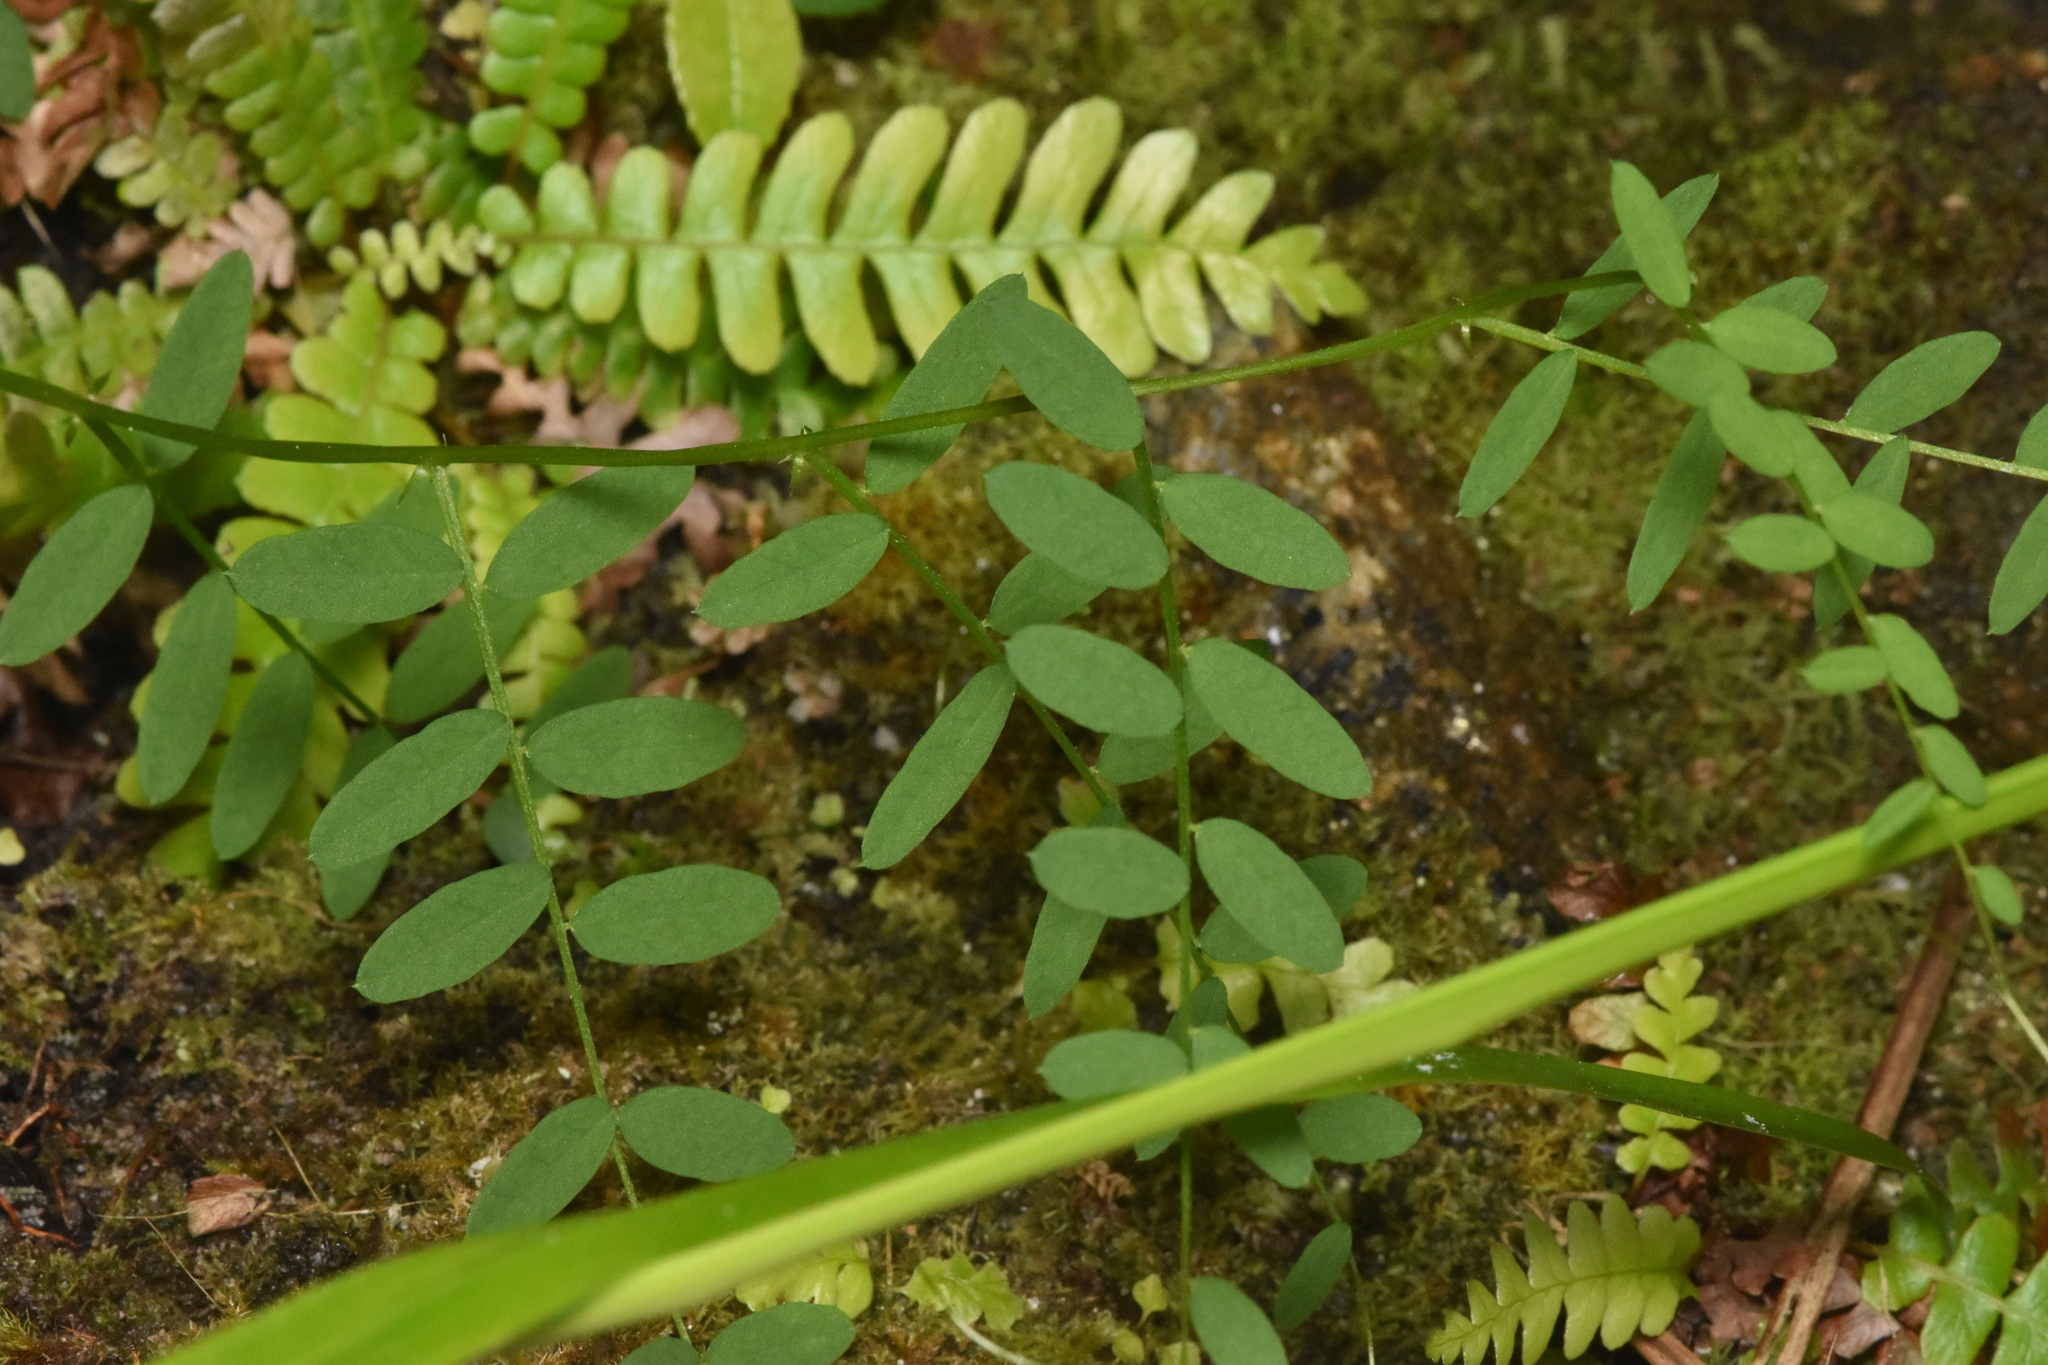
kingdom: Plantae
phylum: Tracheophyta
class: Magnoliopsida
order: Fabales
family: Fabaceae
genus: Vicia
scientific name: Vicia
